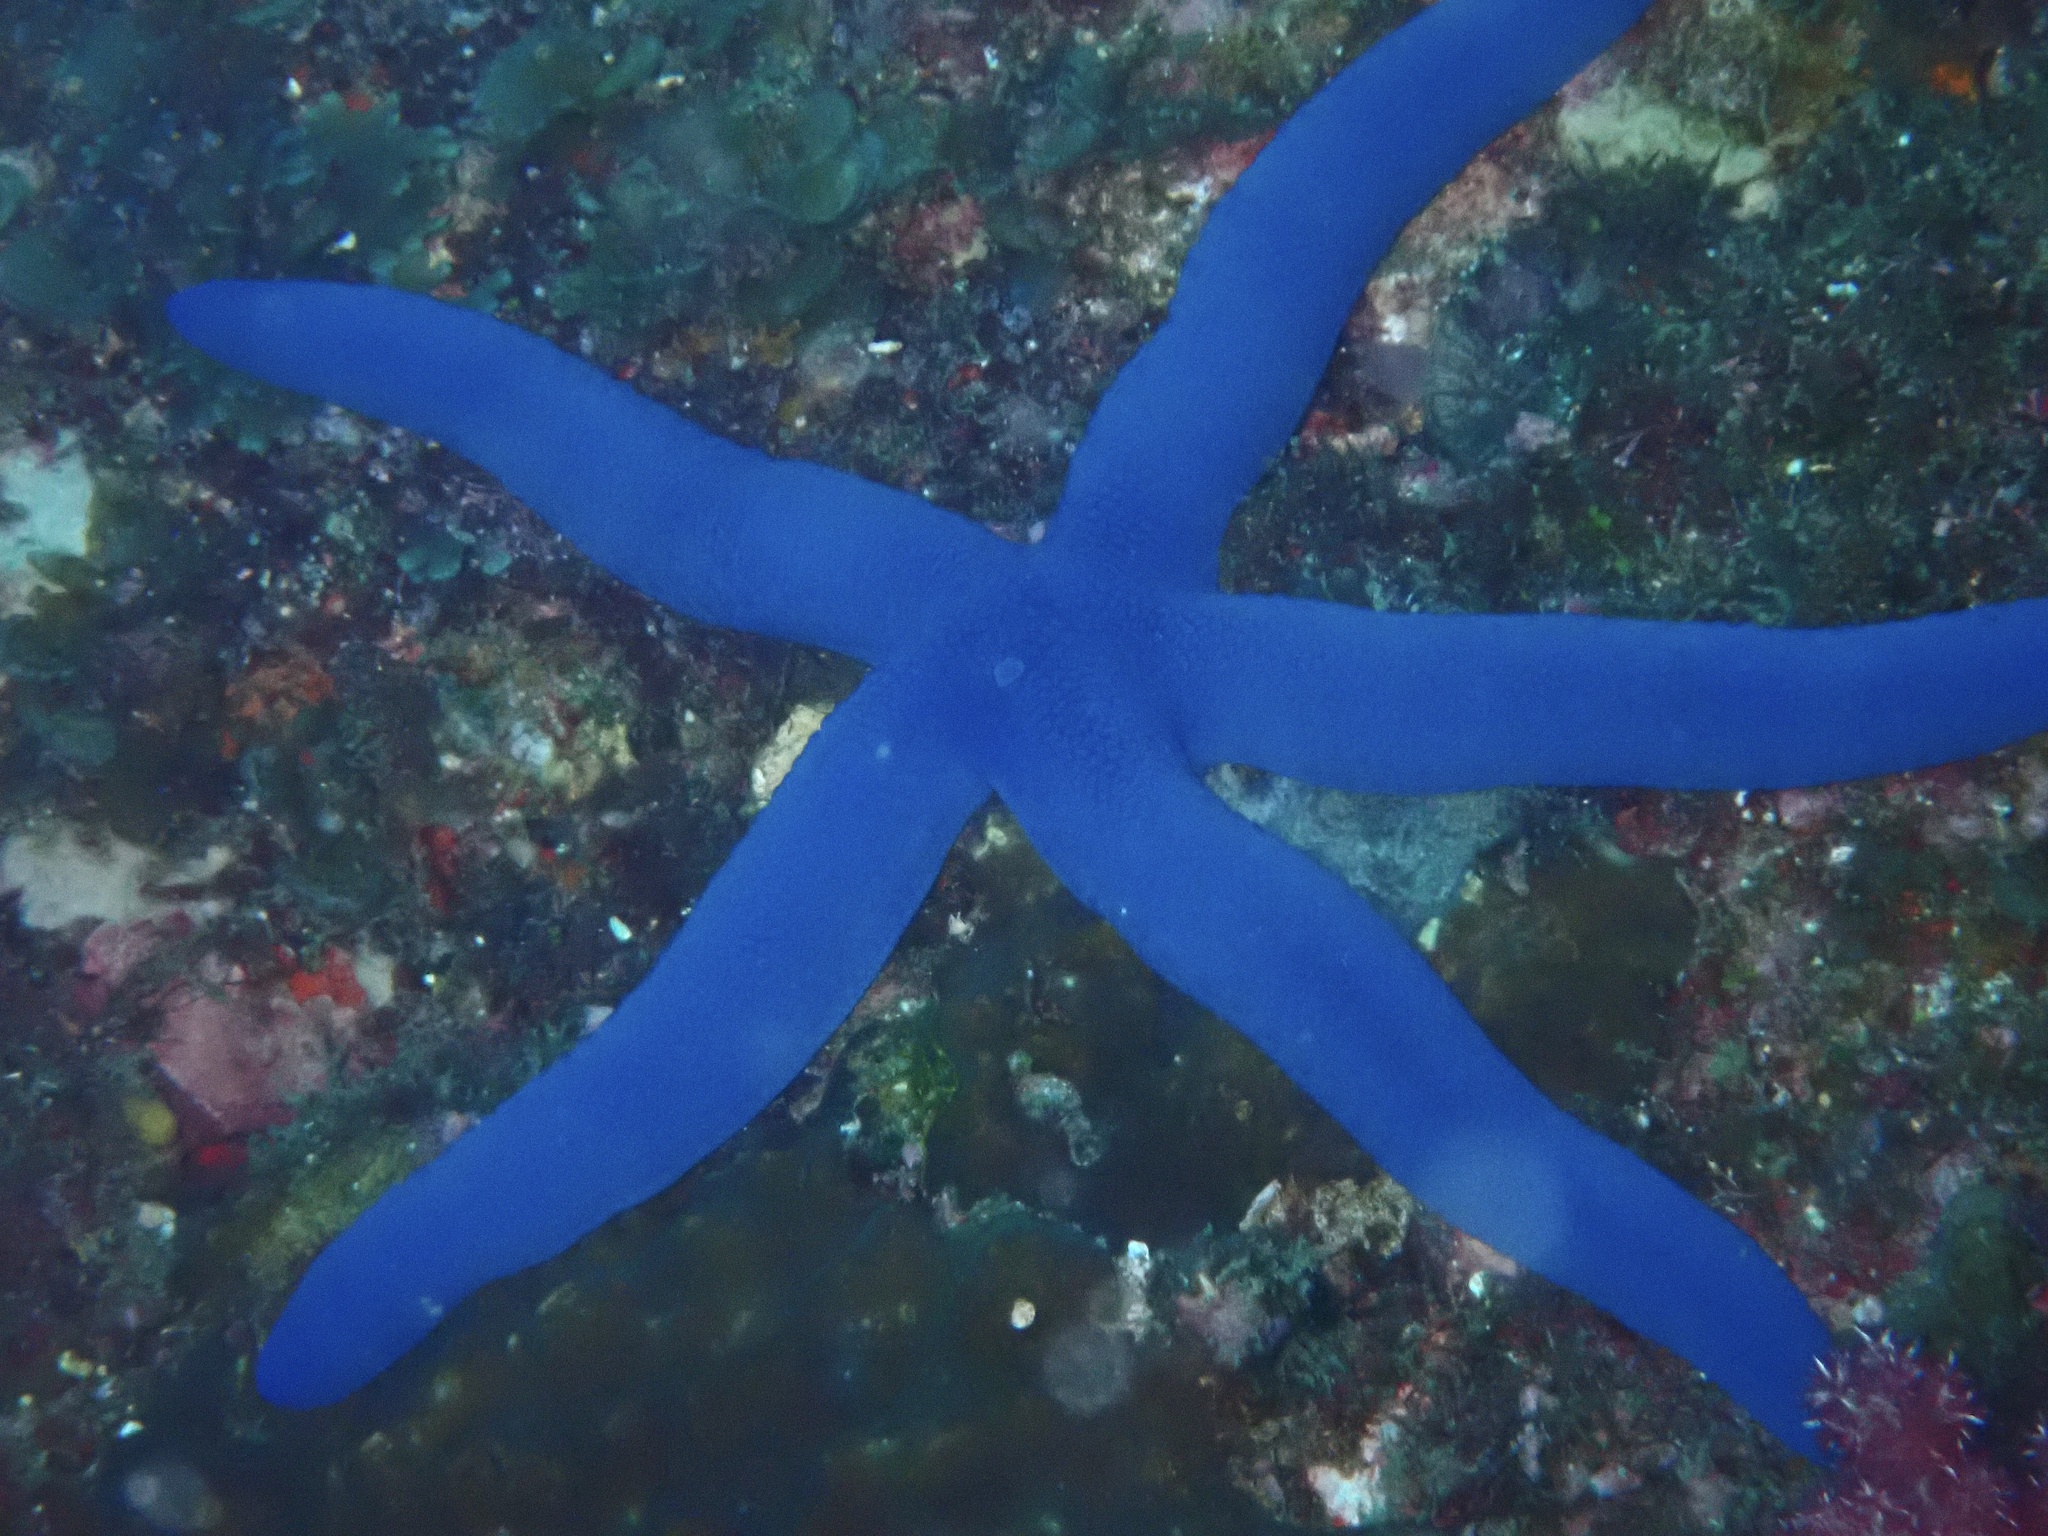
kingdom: Animalia
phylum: Echinodermata
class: Asteroidea
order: Valvatida
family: Ophidiasteridae
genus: Linckia
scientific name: Linckia laevigata
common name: Azure sea star
